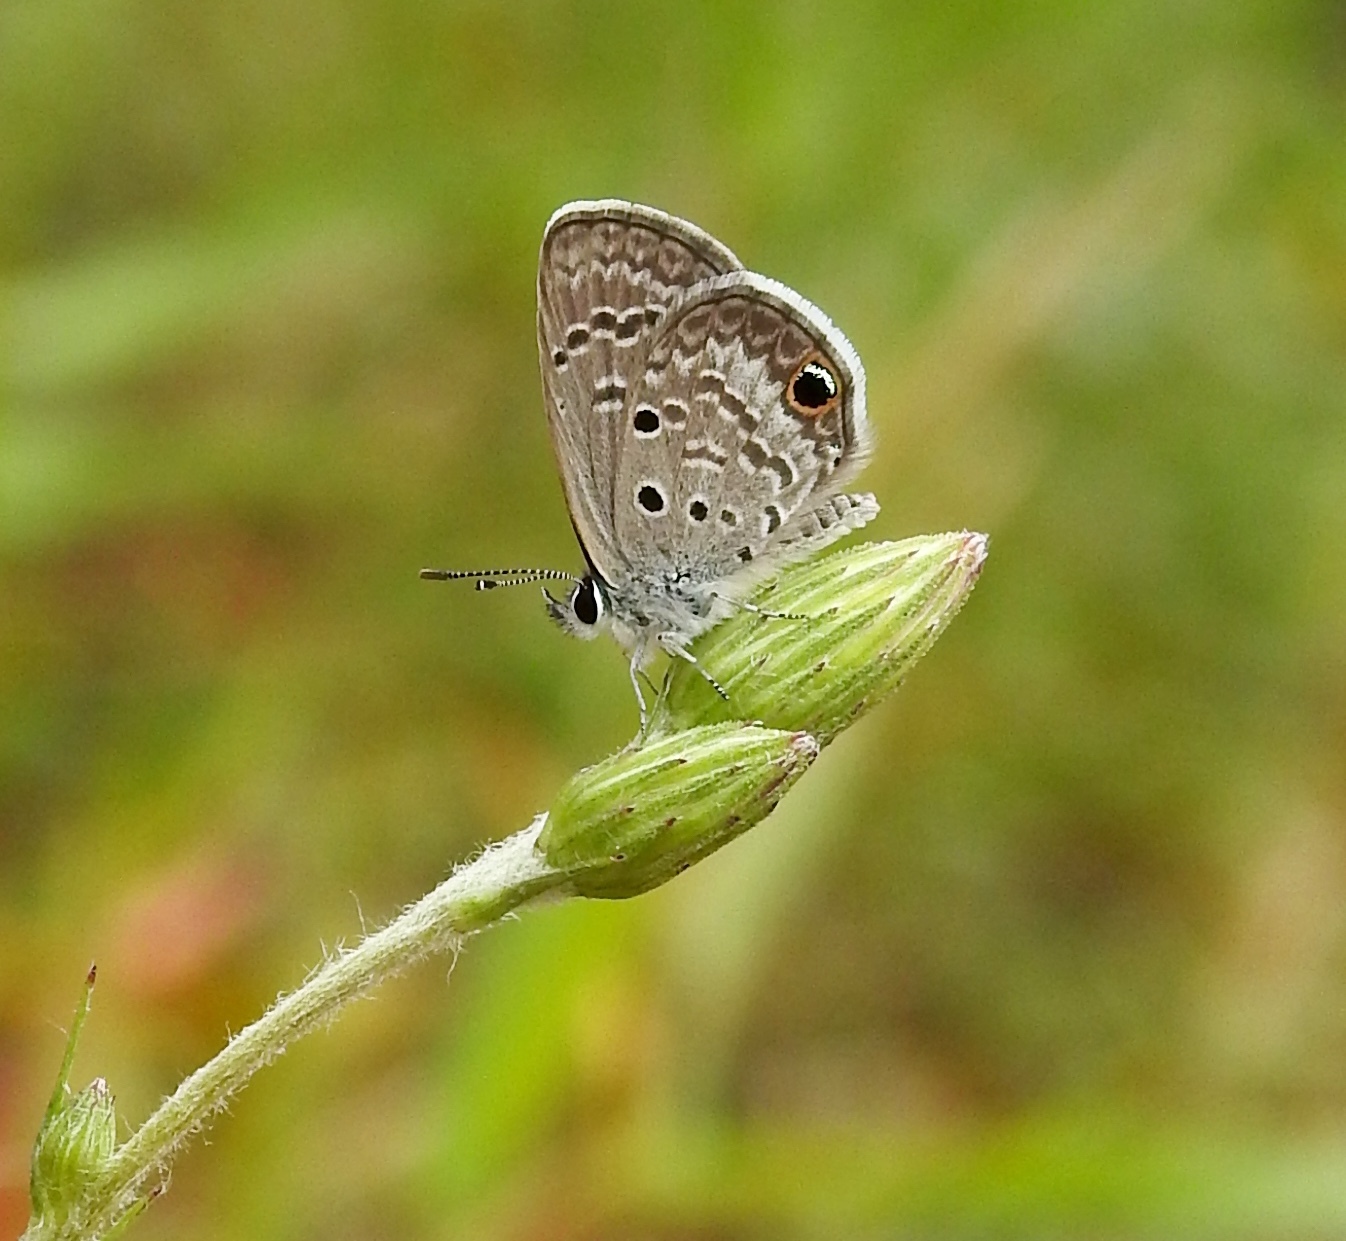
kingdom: Animalia
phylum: Arthropoda
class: Insecta
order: Lepidoptera
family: Lycaenidae
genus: Hemiargus
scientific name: Hemiargus ceraunus
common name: Ceraunus blue
